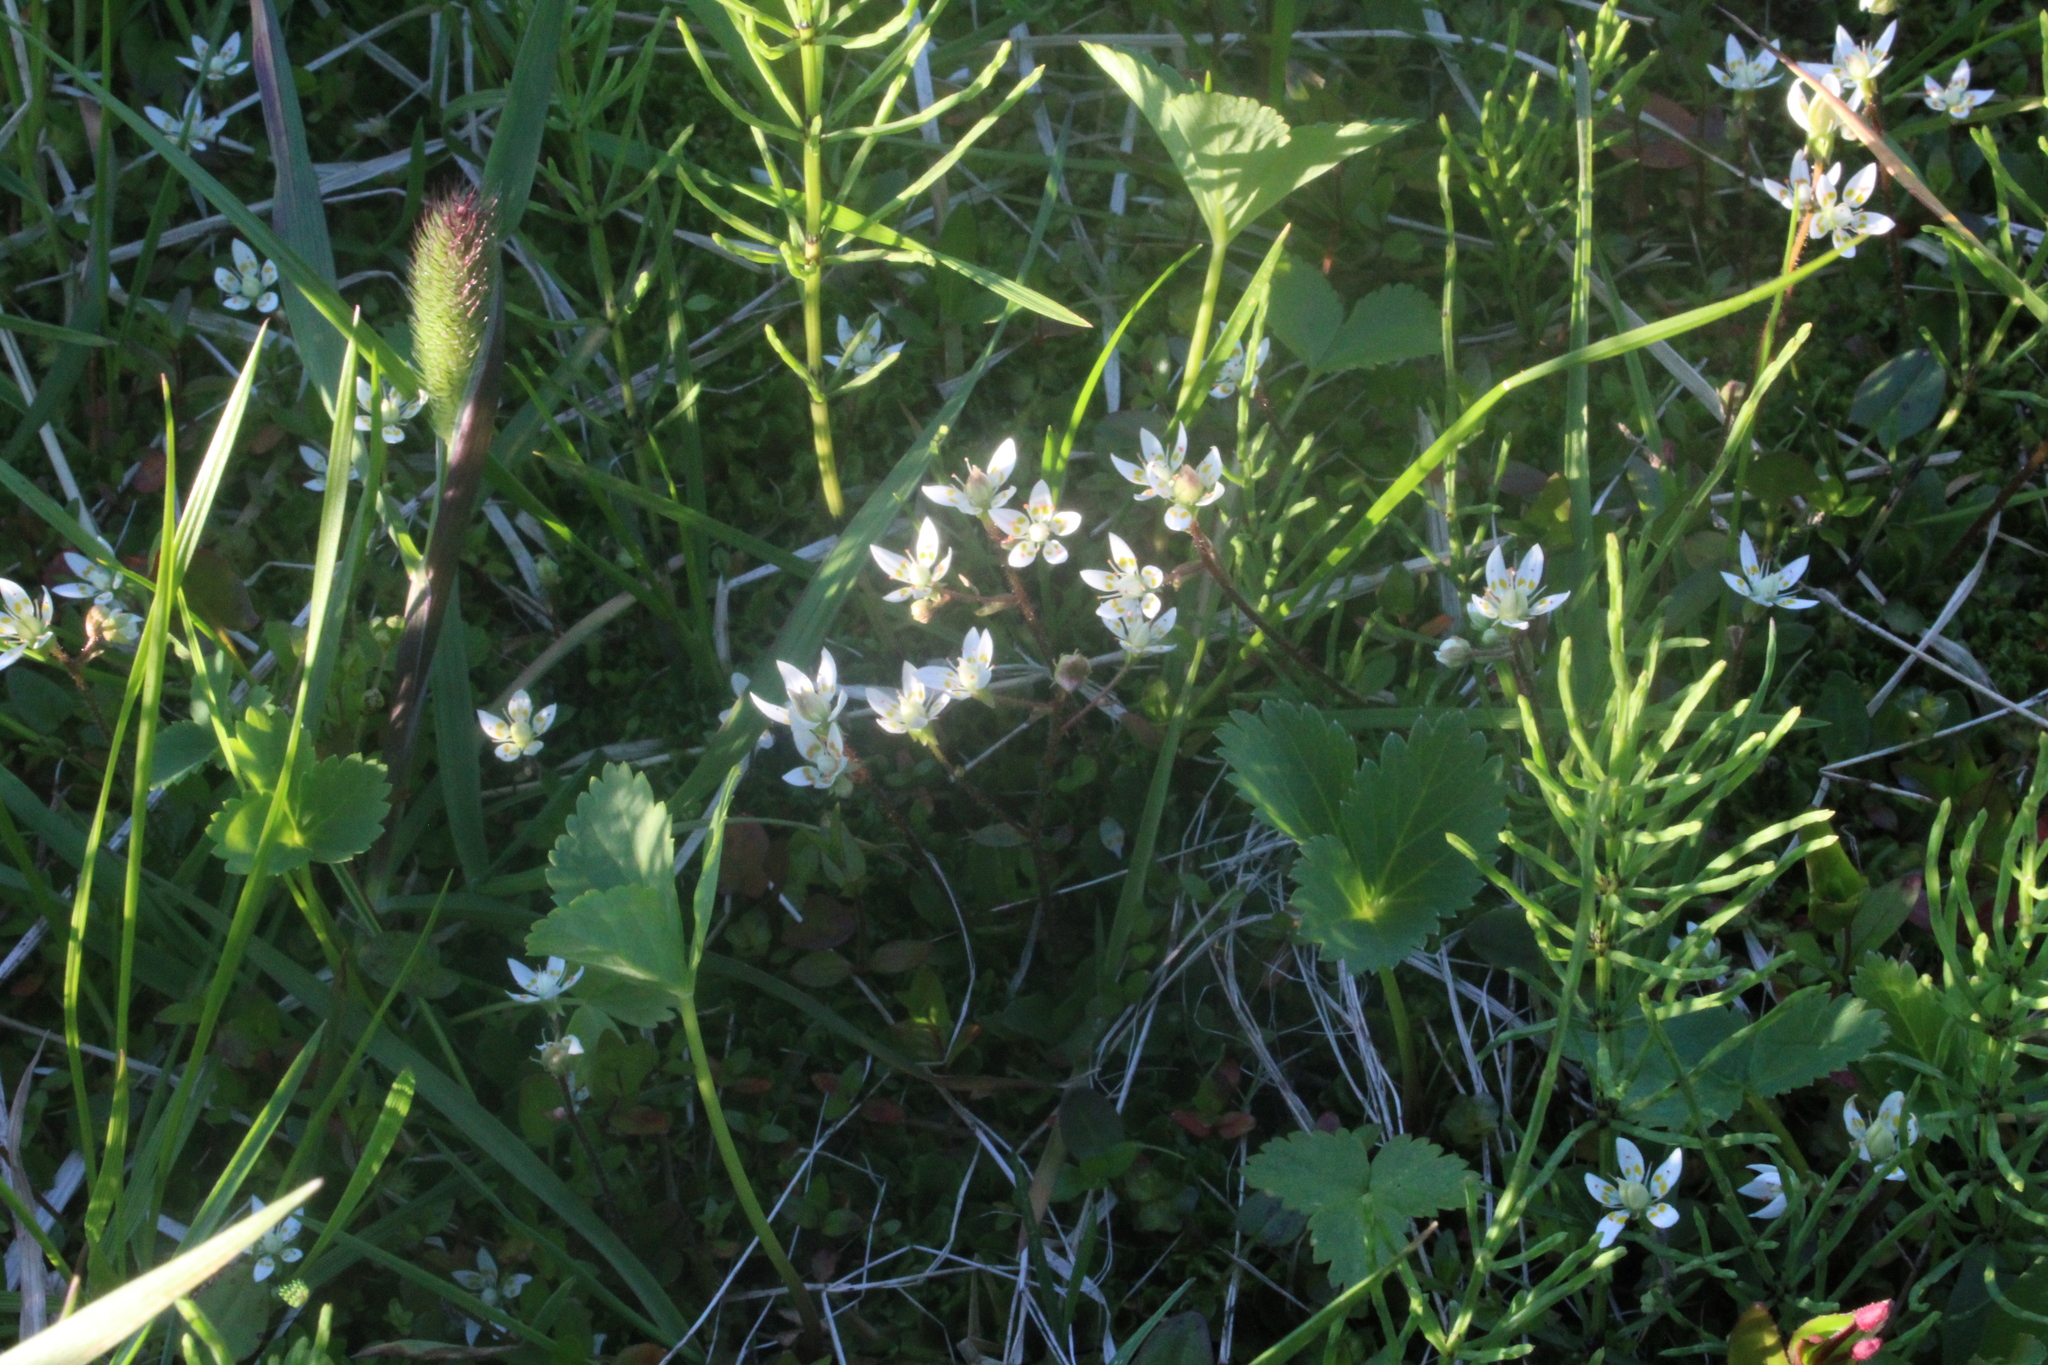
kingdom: Plantae
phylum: Tracheophyta
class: Magnoliopsida
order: Saxifragales
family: Saxifragaceae
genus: Micranthes
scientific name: Micranthes stellaris
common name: Starry saxifrage
